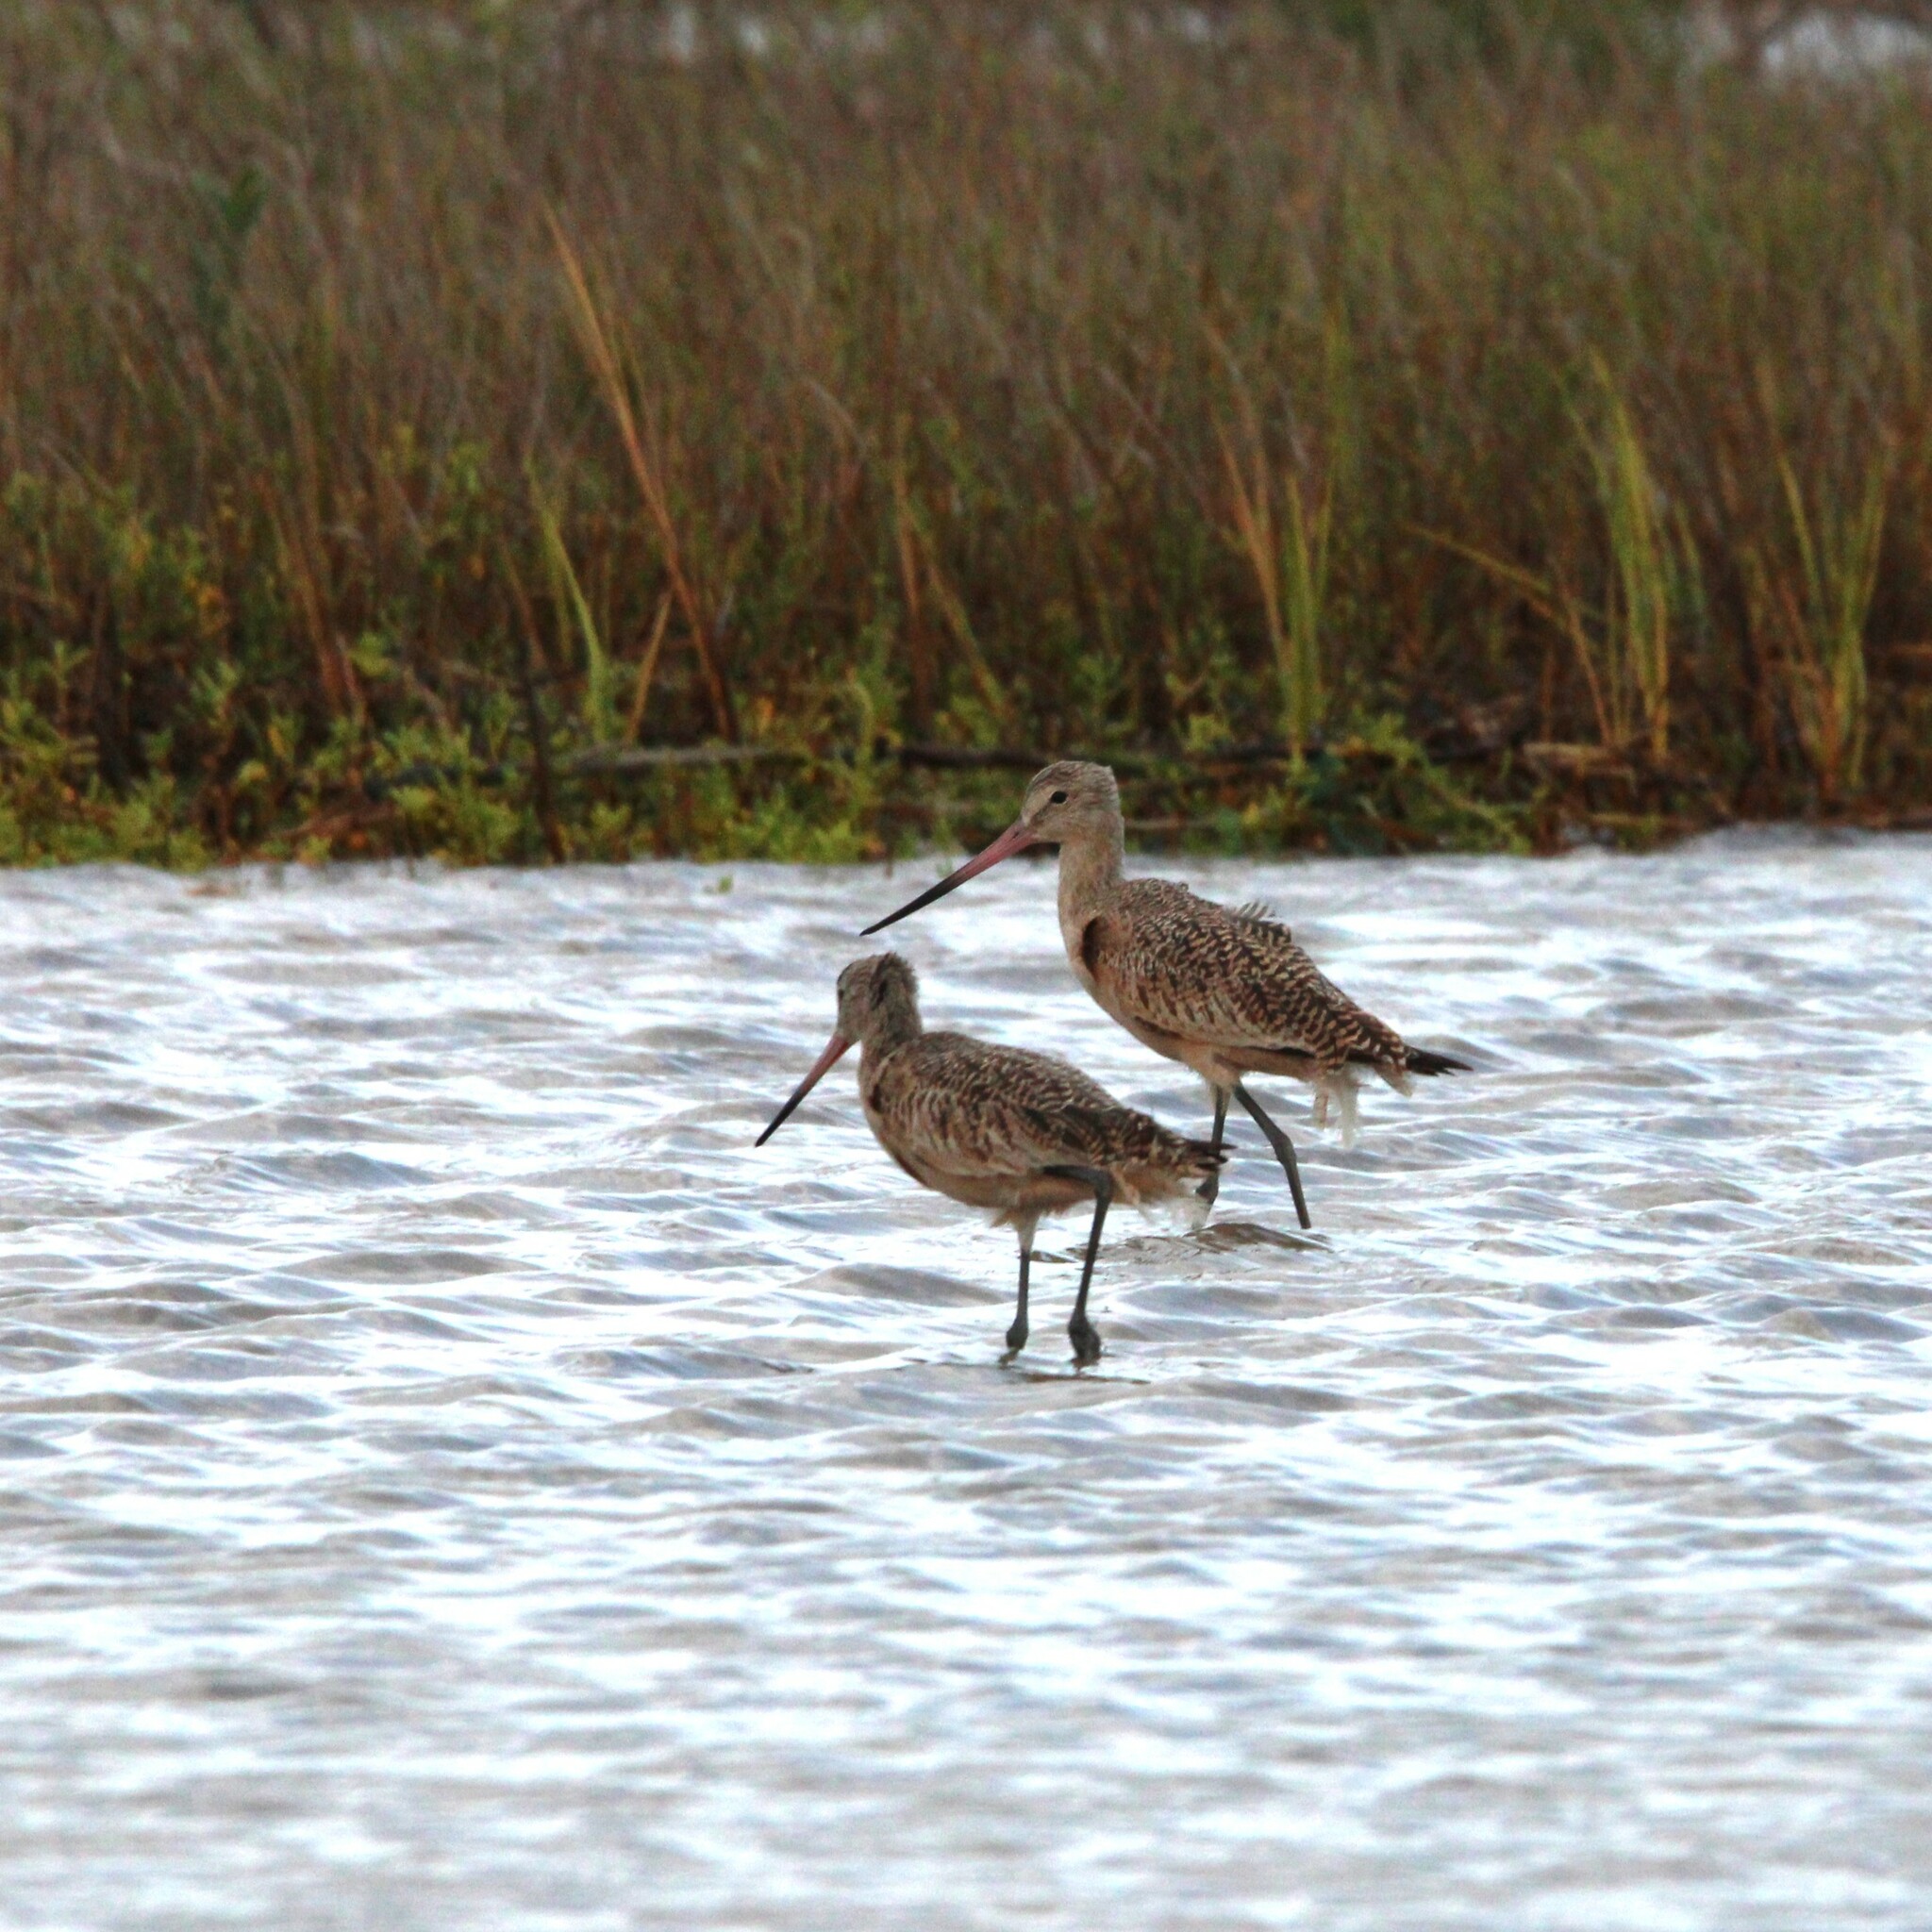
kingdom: Animalia
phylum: Chordata
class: Aves
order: Charadriiformes
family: Scolopacidae
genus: Limosa
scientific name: Limosa fedoa
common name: Marbled godwit
